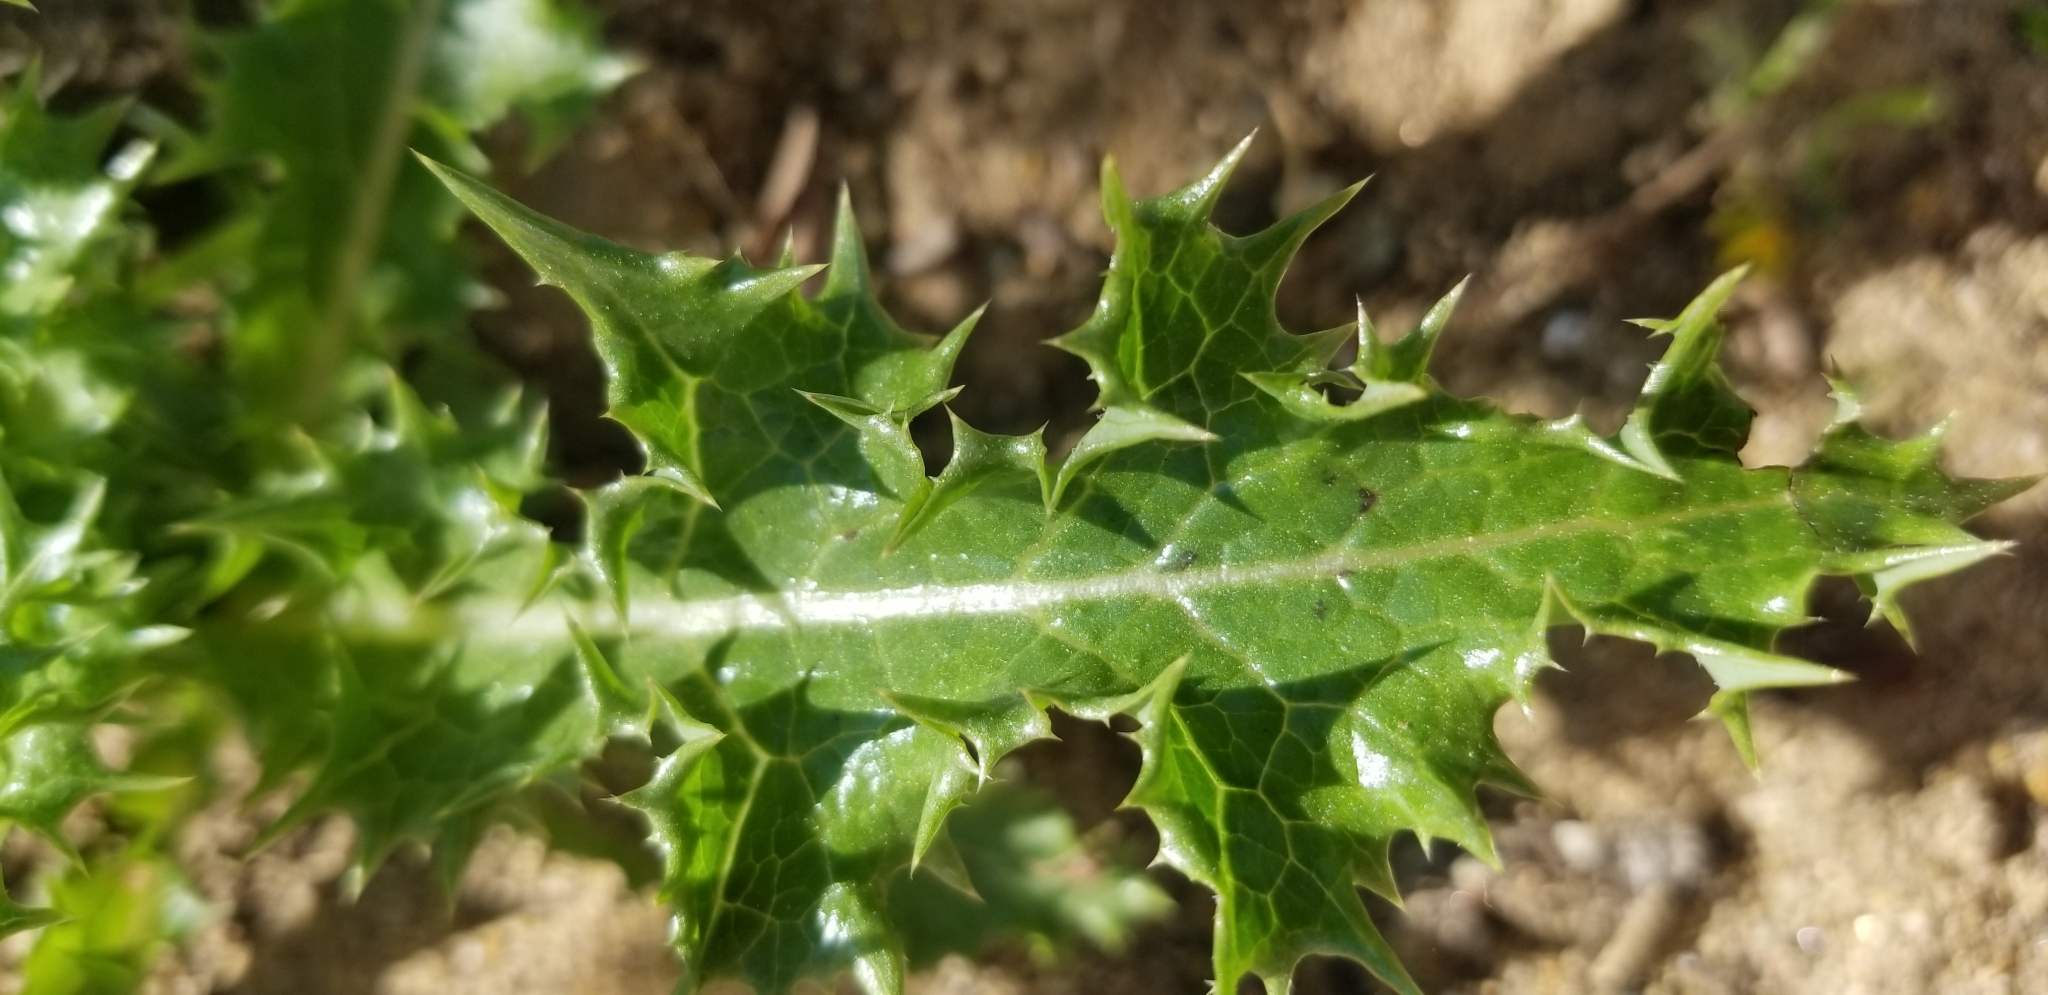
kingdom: Plantae
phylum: Tracheophyta
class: Magnoliopsida
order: Asterales
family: Asteraceae
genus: Sonchus
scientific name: Sonchus asper
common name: Prickly sow-thistle
